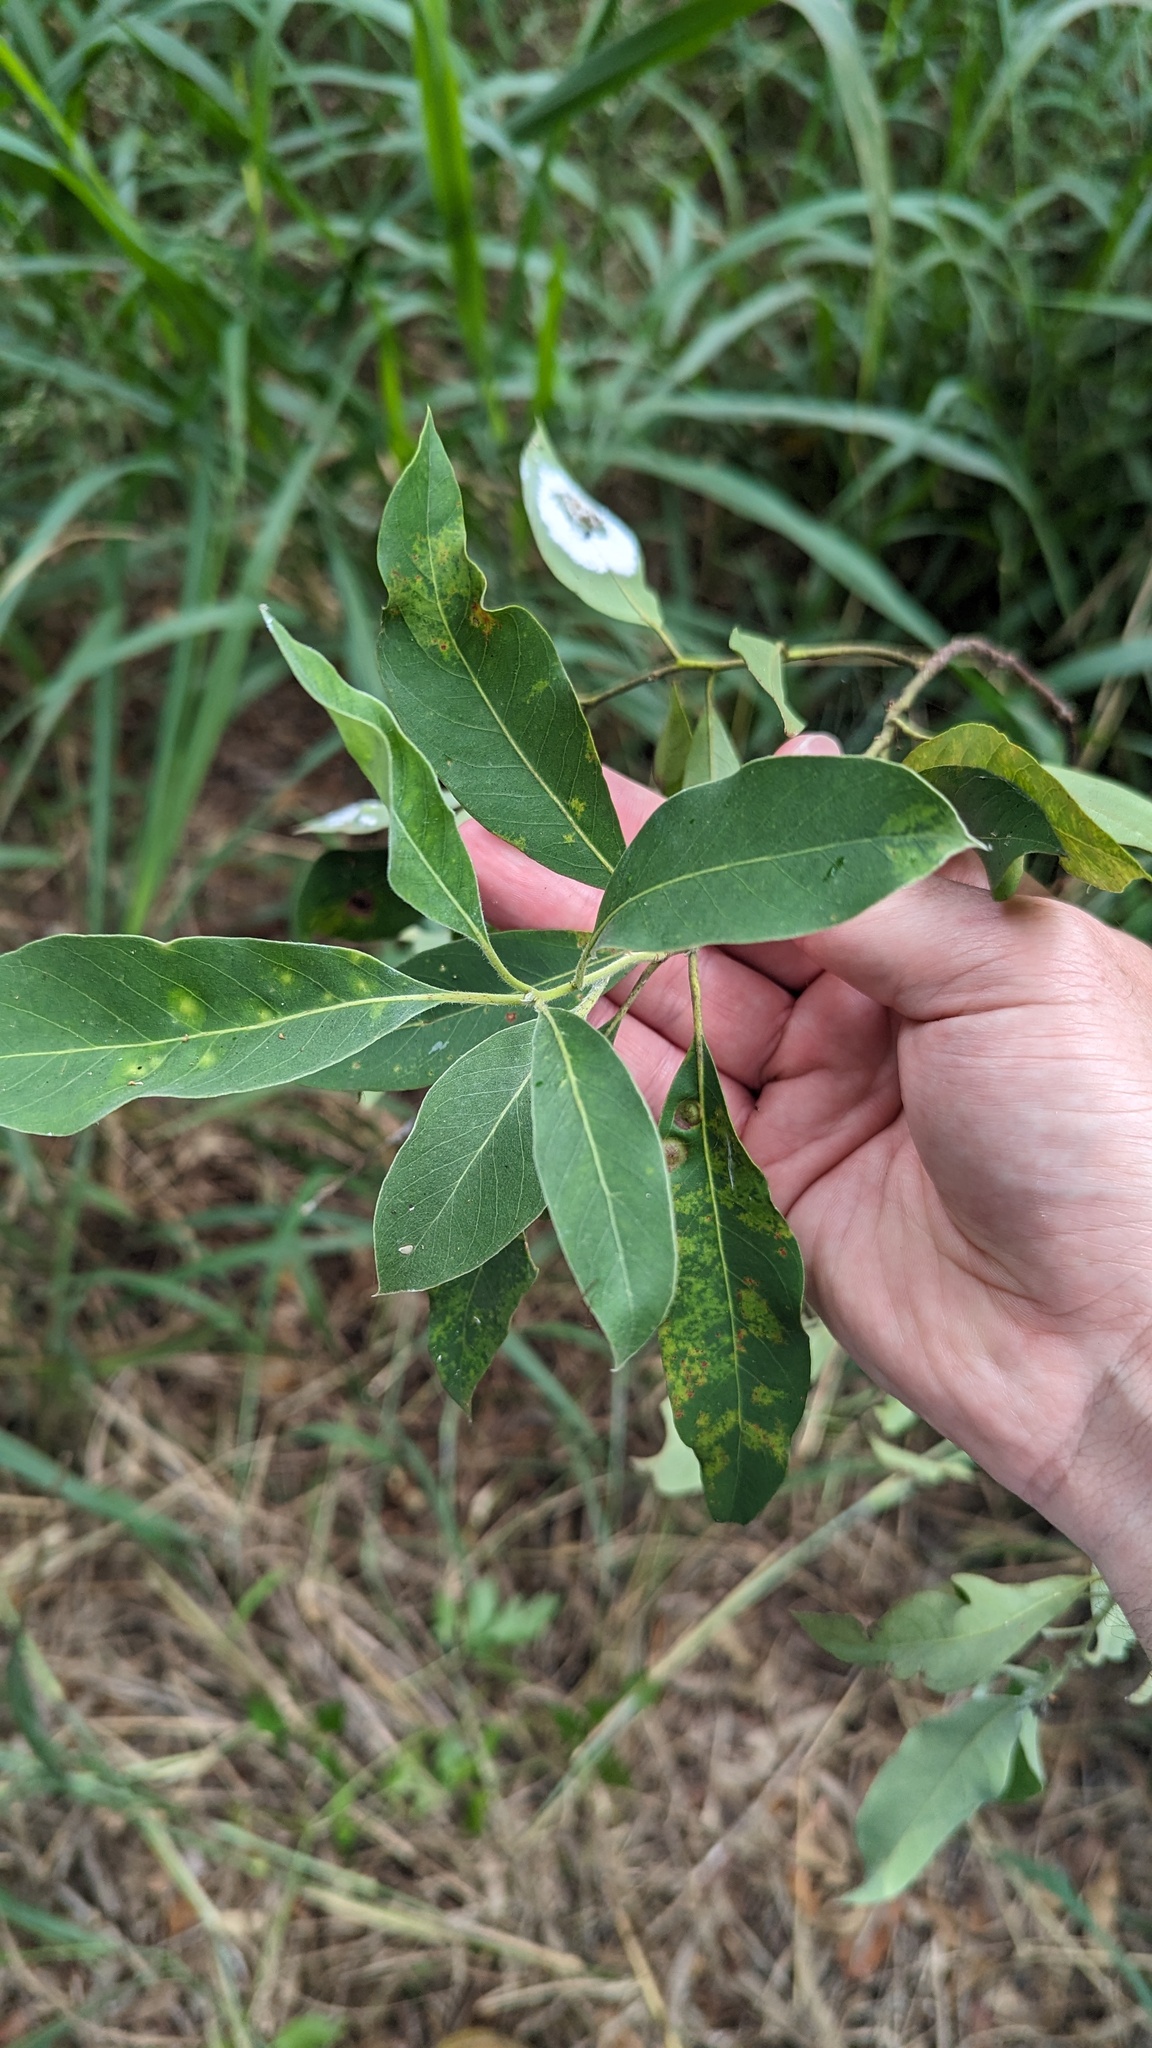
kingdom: Plantae
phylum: Tracheophyta
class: Magnoliopsida
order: Myrtales
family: Myrtaceae
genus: Lophostemon
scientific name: Lophostemon suaveolens
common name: Paperbark-mahogany
